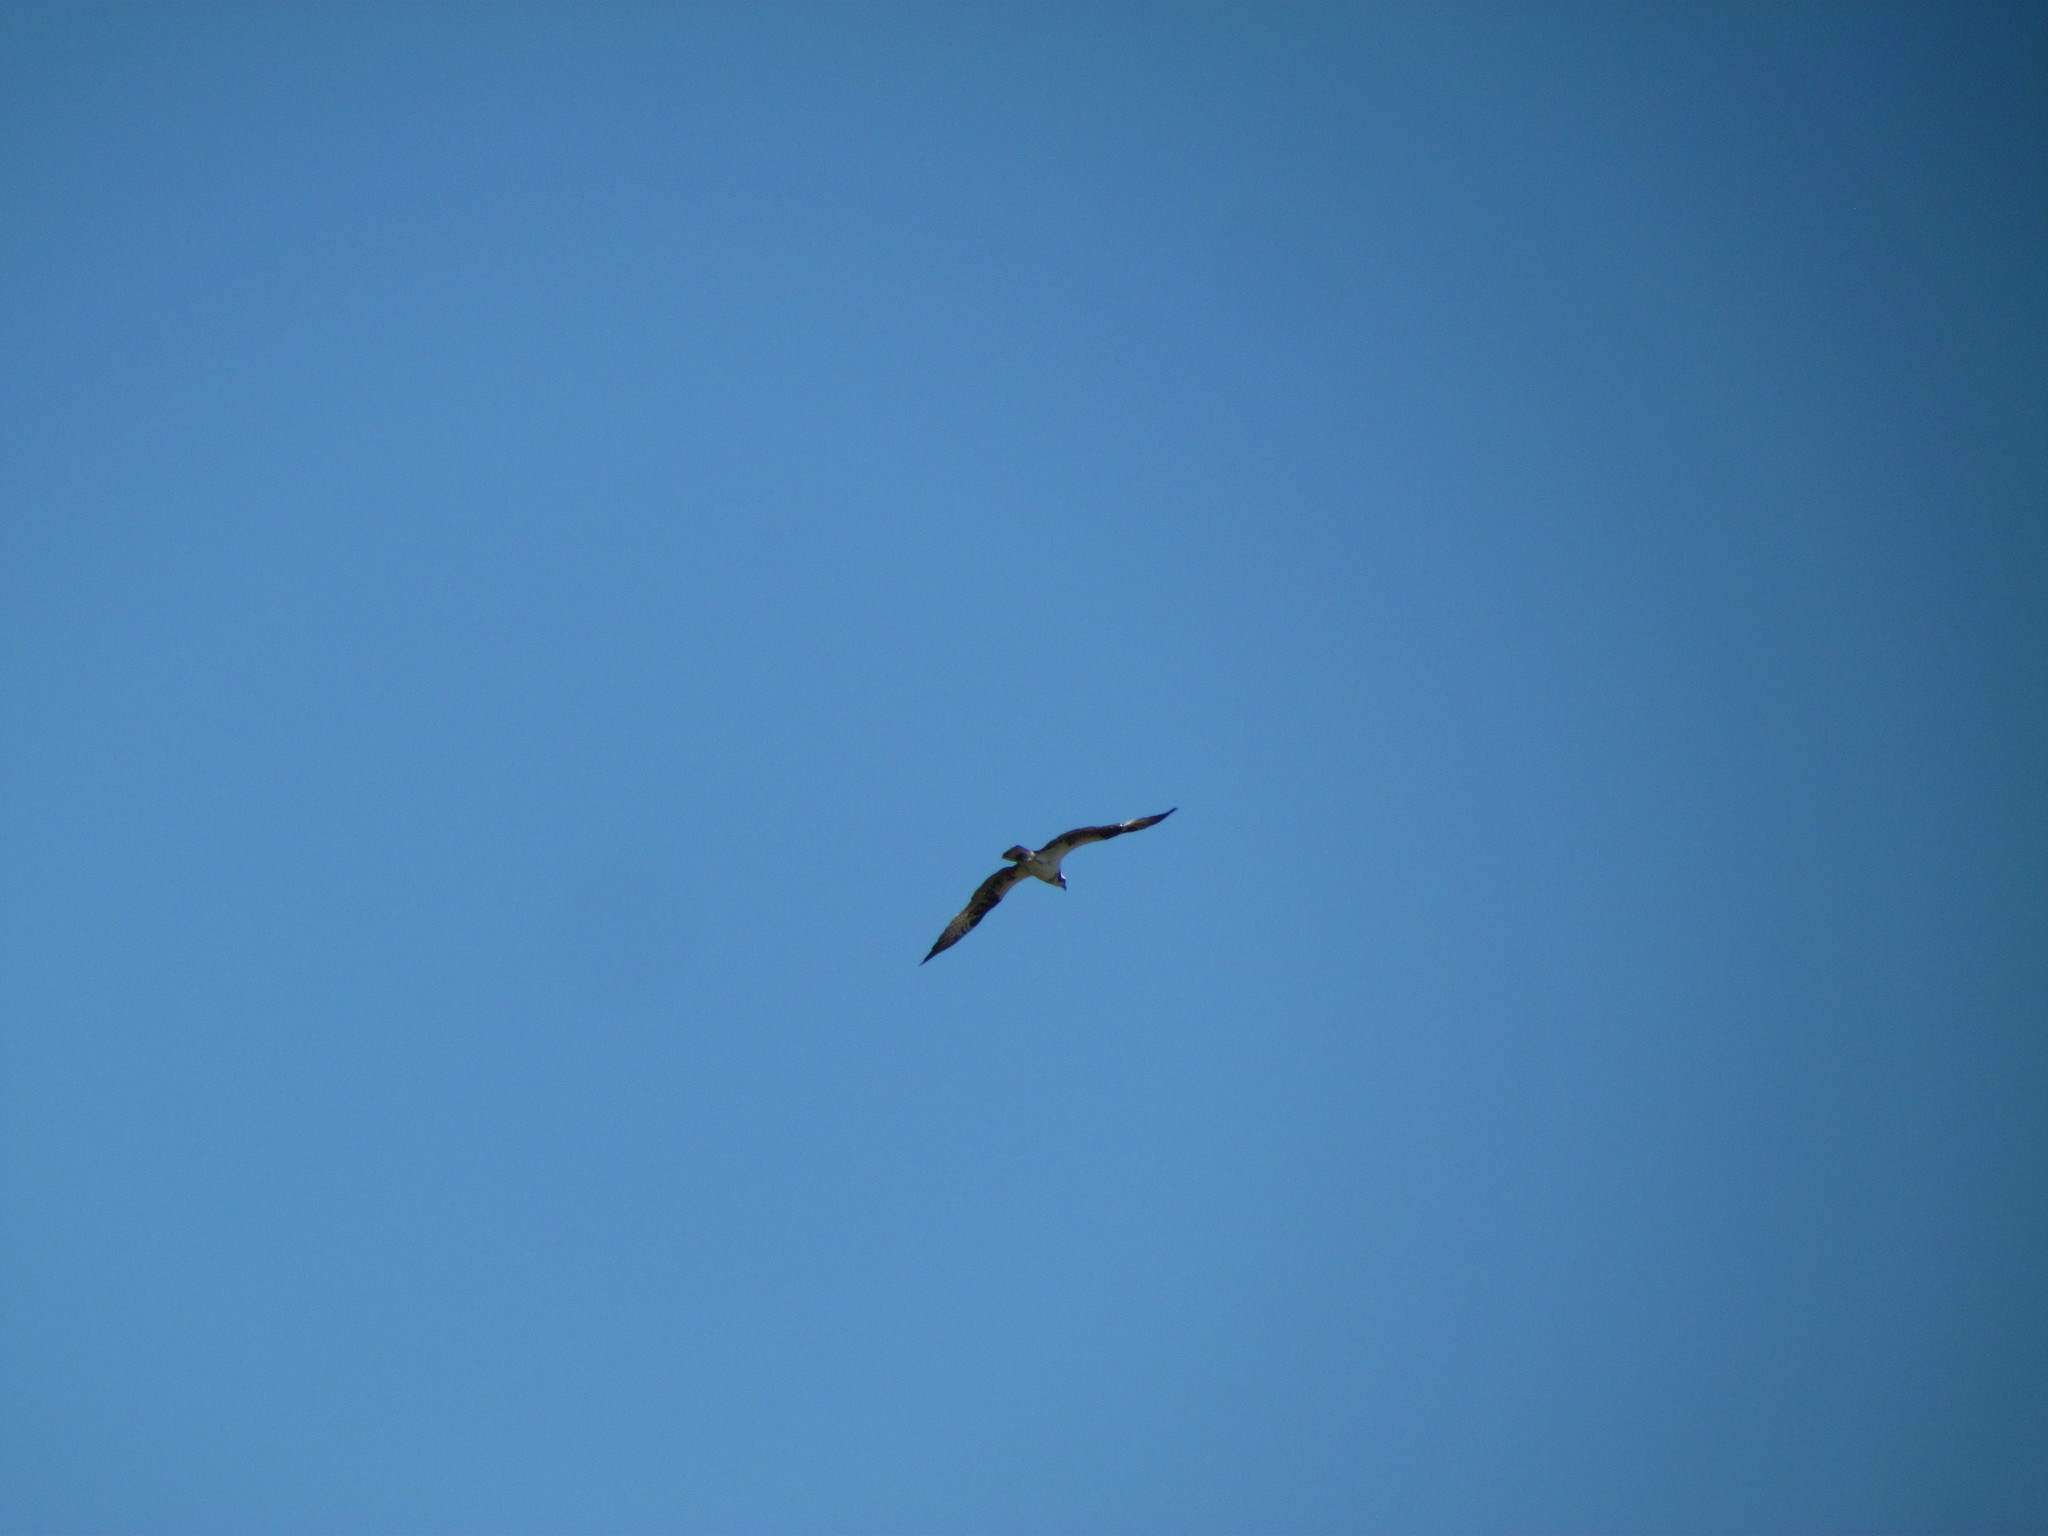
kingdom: Animalia
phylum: Chordata
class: Aves
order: Accipitriformes
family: Pandionidae
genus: Pandion
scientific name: Pandion haliaetus
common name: Osprey
